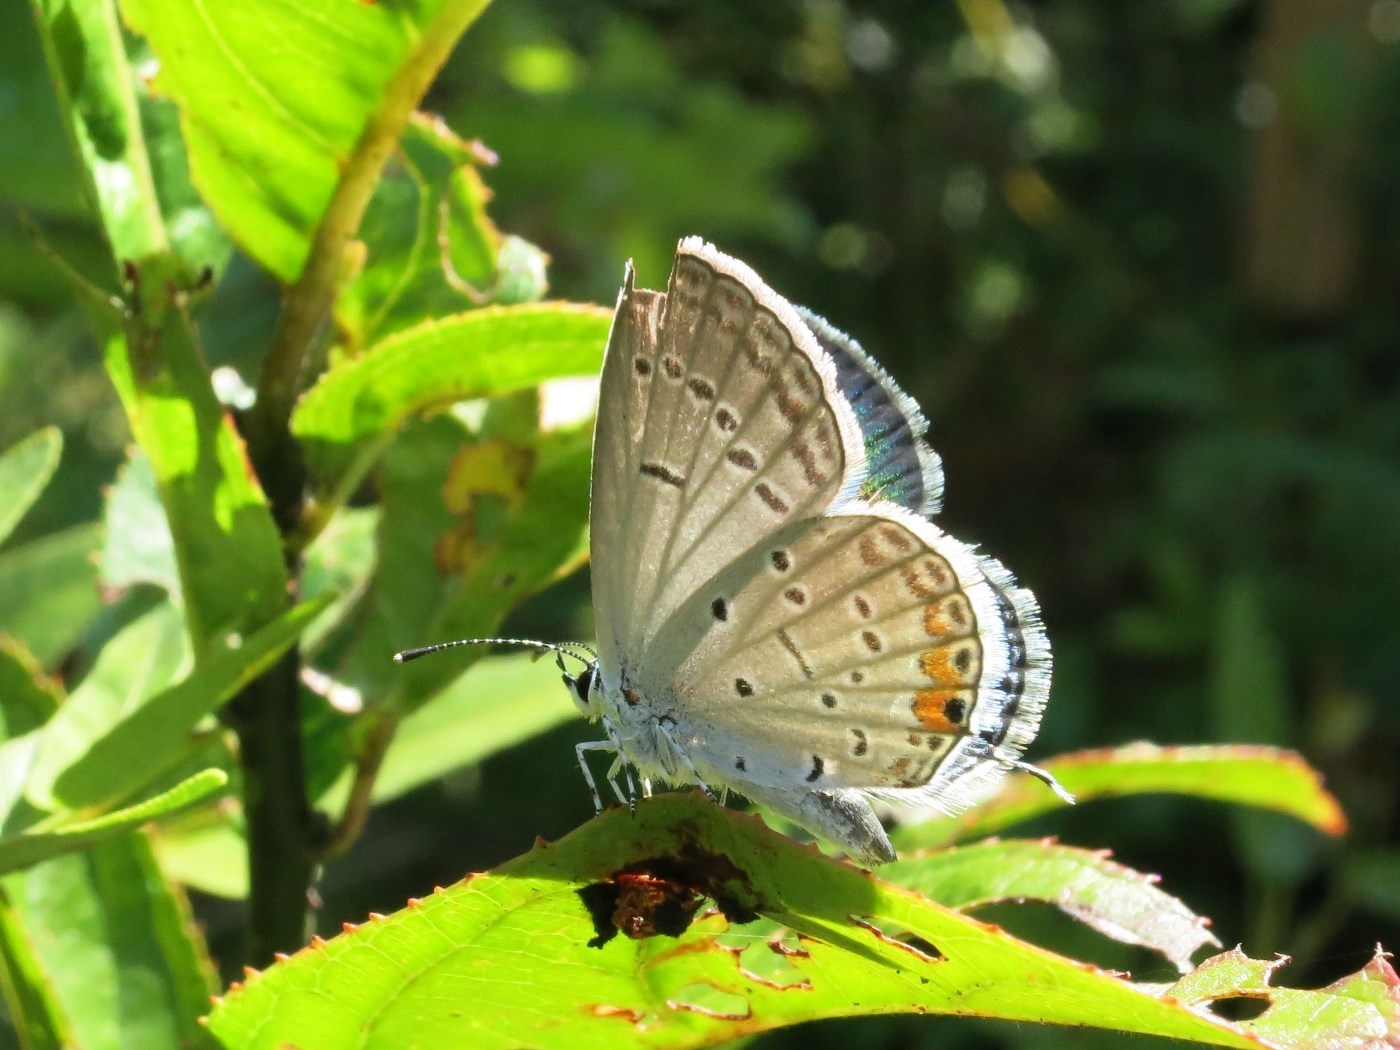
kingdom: Animalia
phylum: Arthropoda
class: Insecta
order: Lepidoptera
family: Lycaenidae
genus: Elkalyce
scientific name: Elkalyce comyntas
